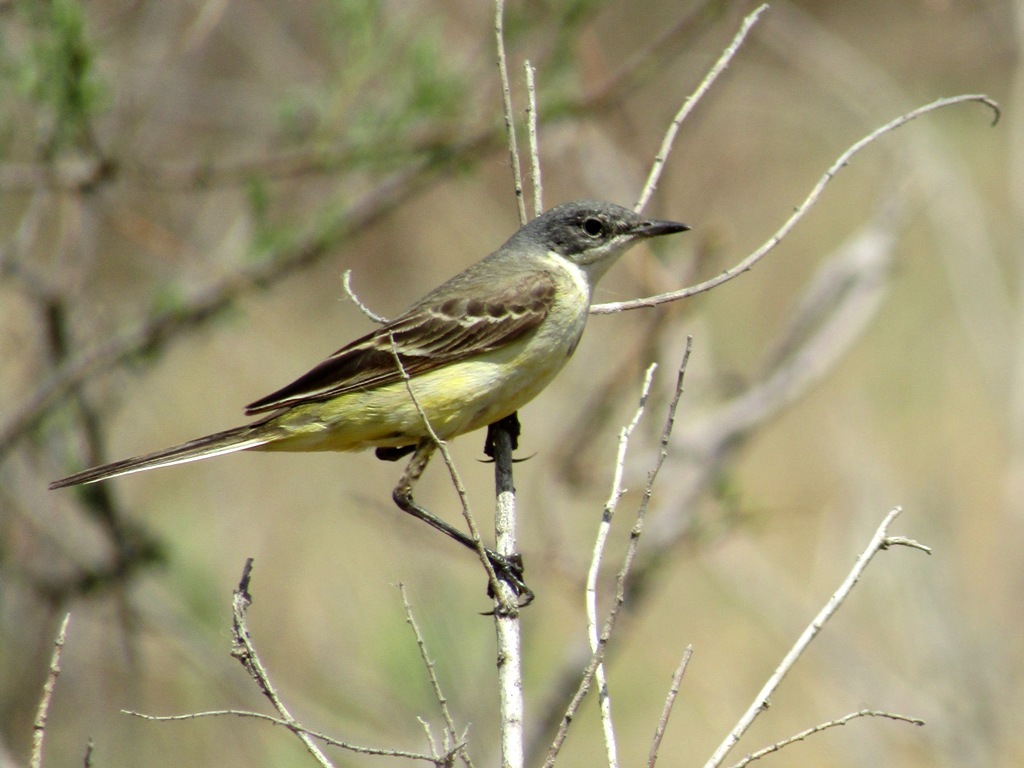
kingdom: Animalia
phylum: Chordata
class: Aves
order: Passeriformes
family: Motacillidae
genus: Motacilla
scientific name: Motacilla flava
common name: Western yellow wagtail
